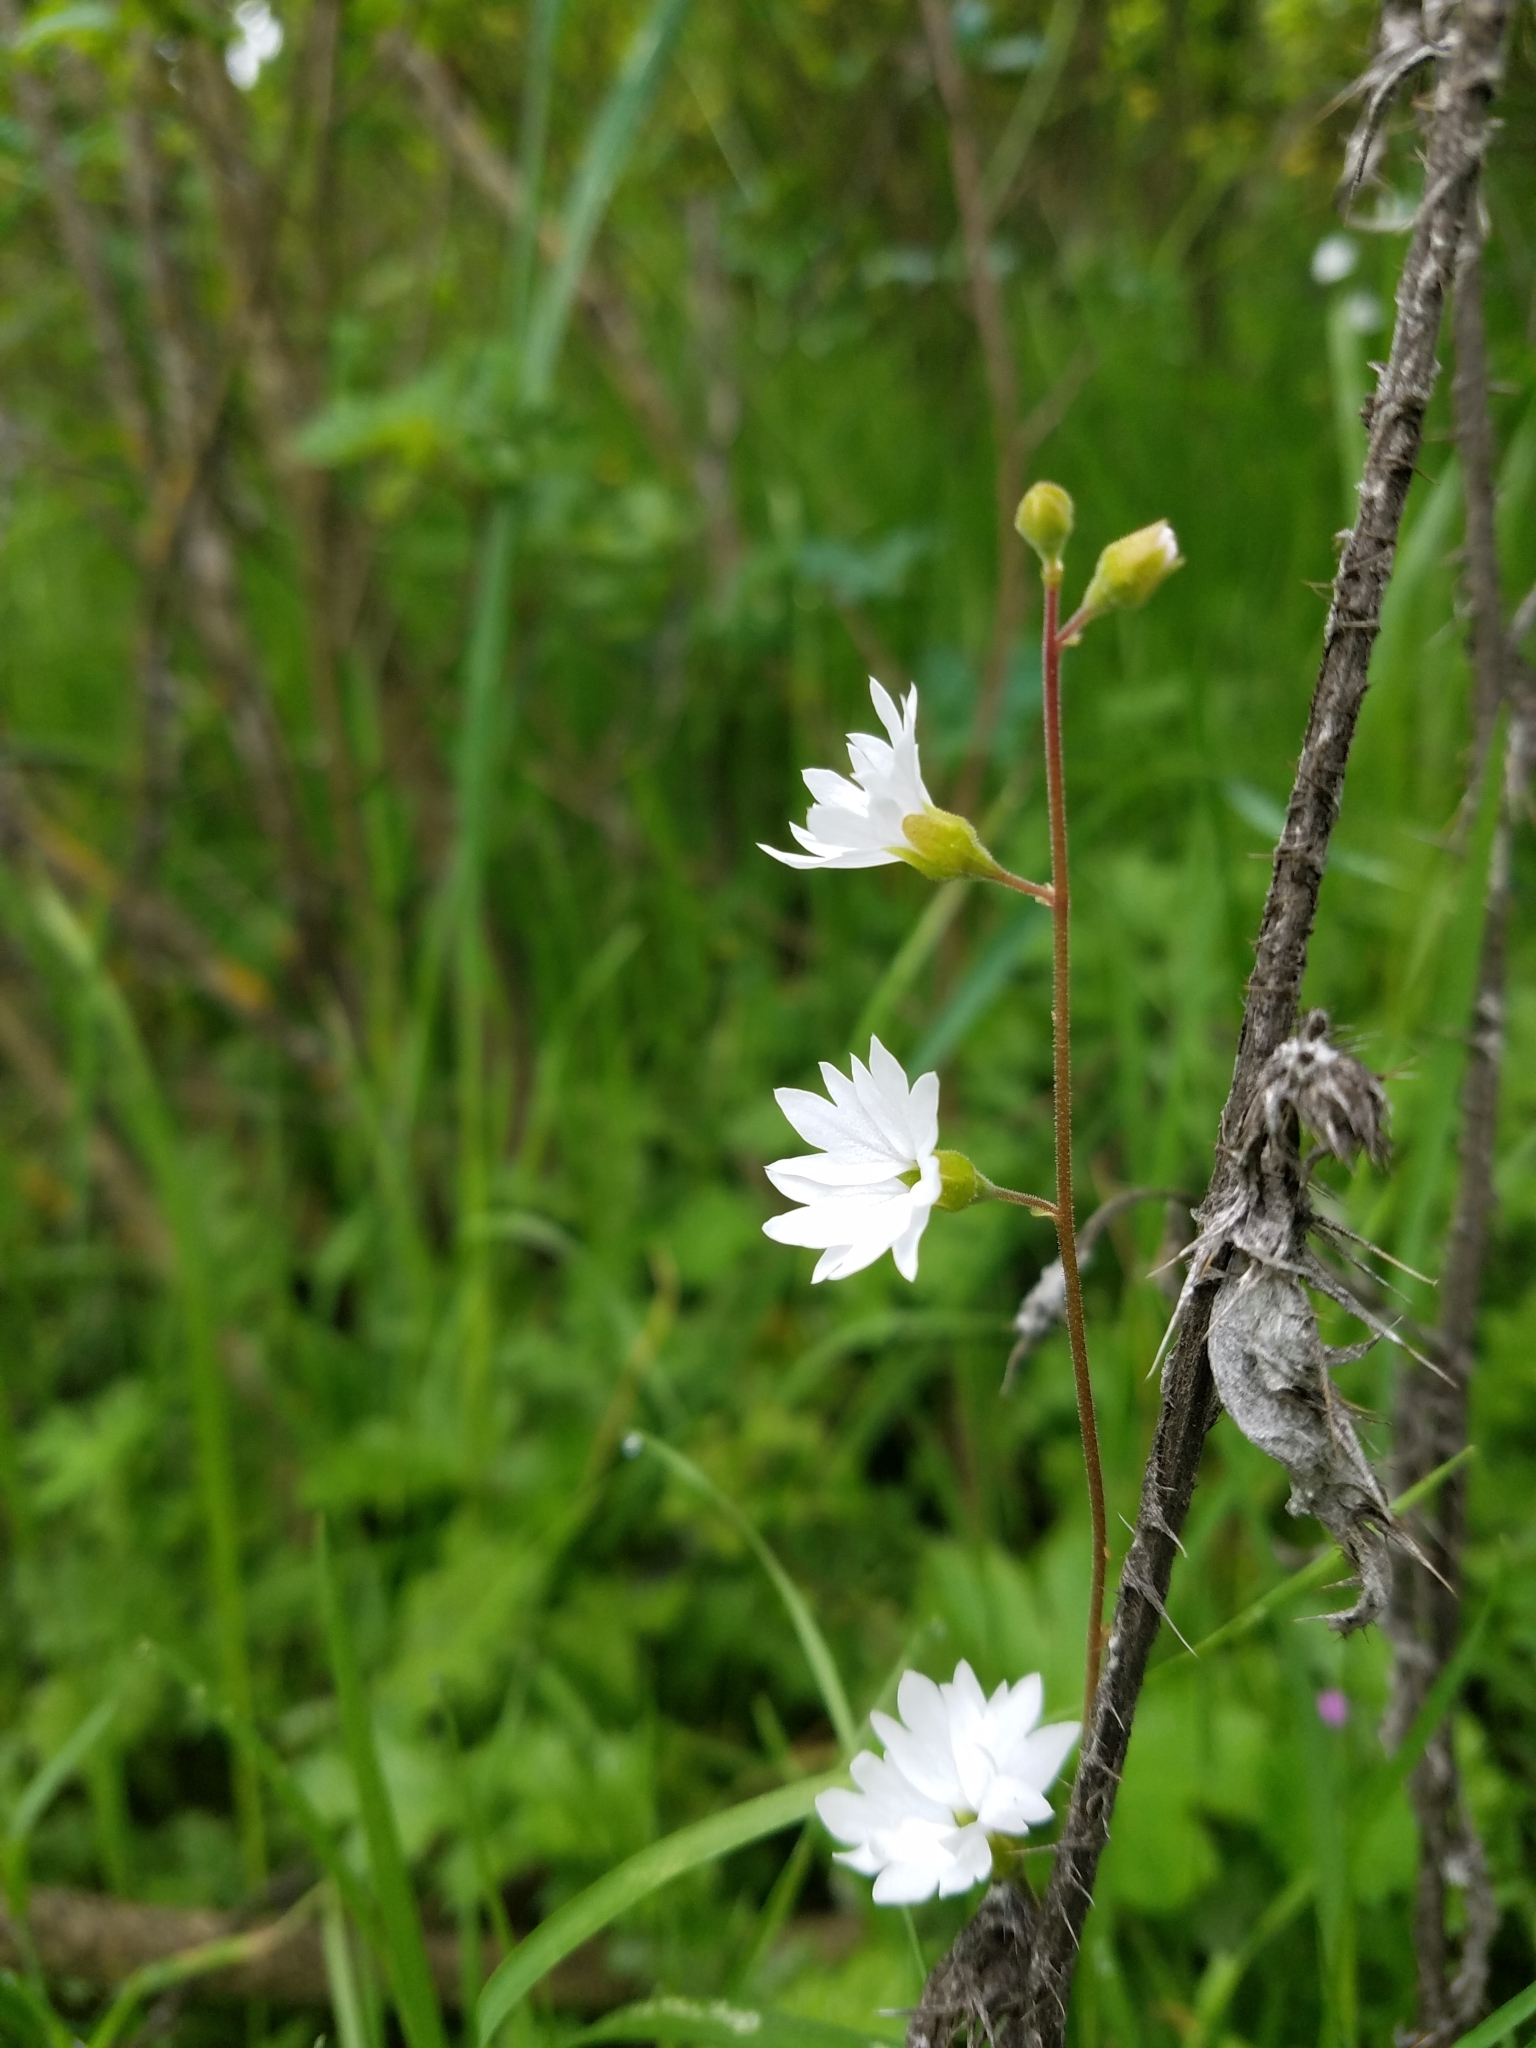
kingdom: Plantae
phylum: Tracheophyta
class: Magnoliopsida
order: Saxifragales
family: Saxifragaceae
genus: Lithophragma
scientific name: Lithophragma affine
